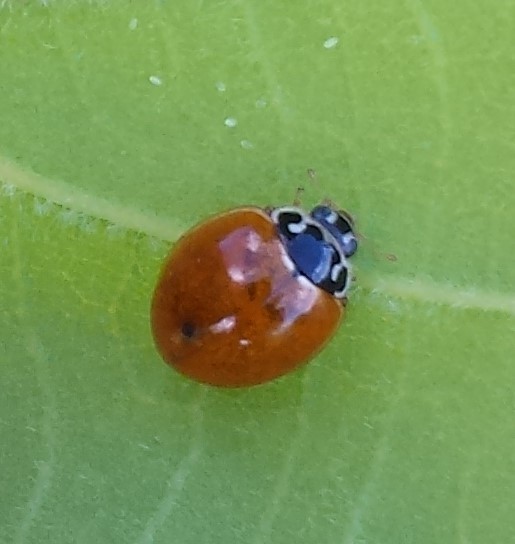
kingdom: Animalia
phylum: Arthropoda
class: Insecta
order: Coleoptera
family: Coccinellidae
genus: Cycloneda
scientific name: Cycloneda munda
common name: Polished lady beetle
